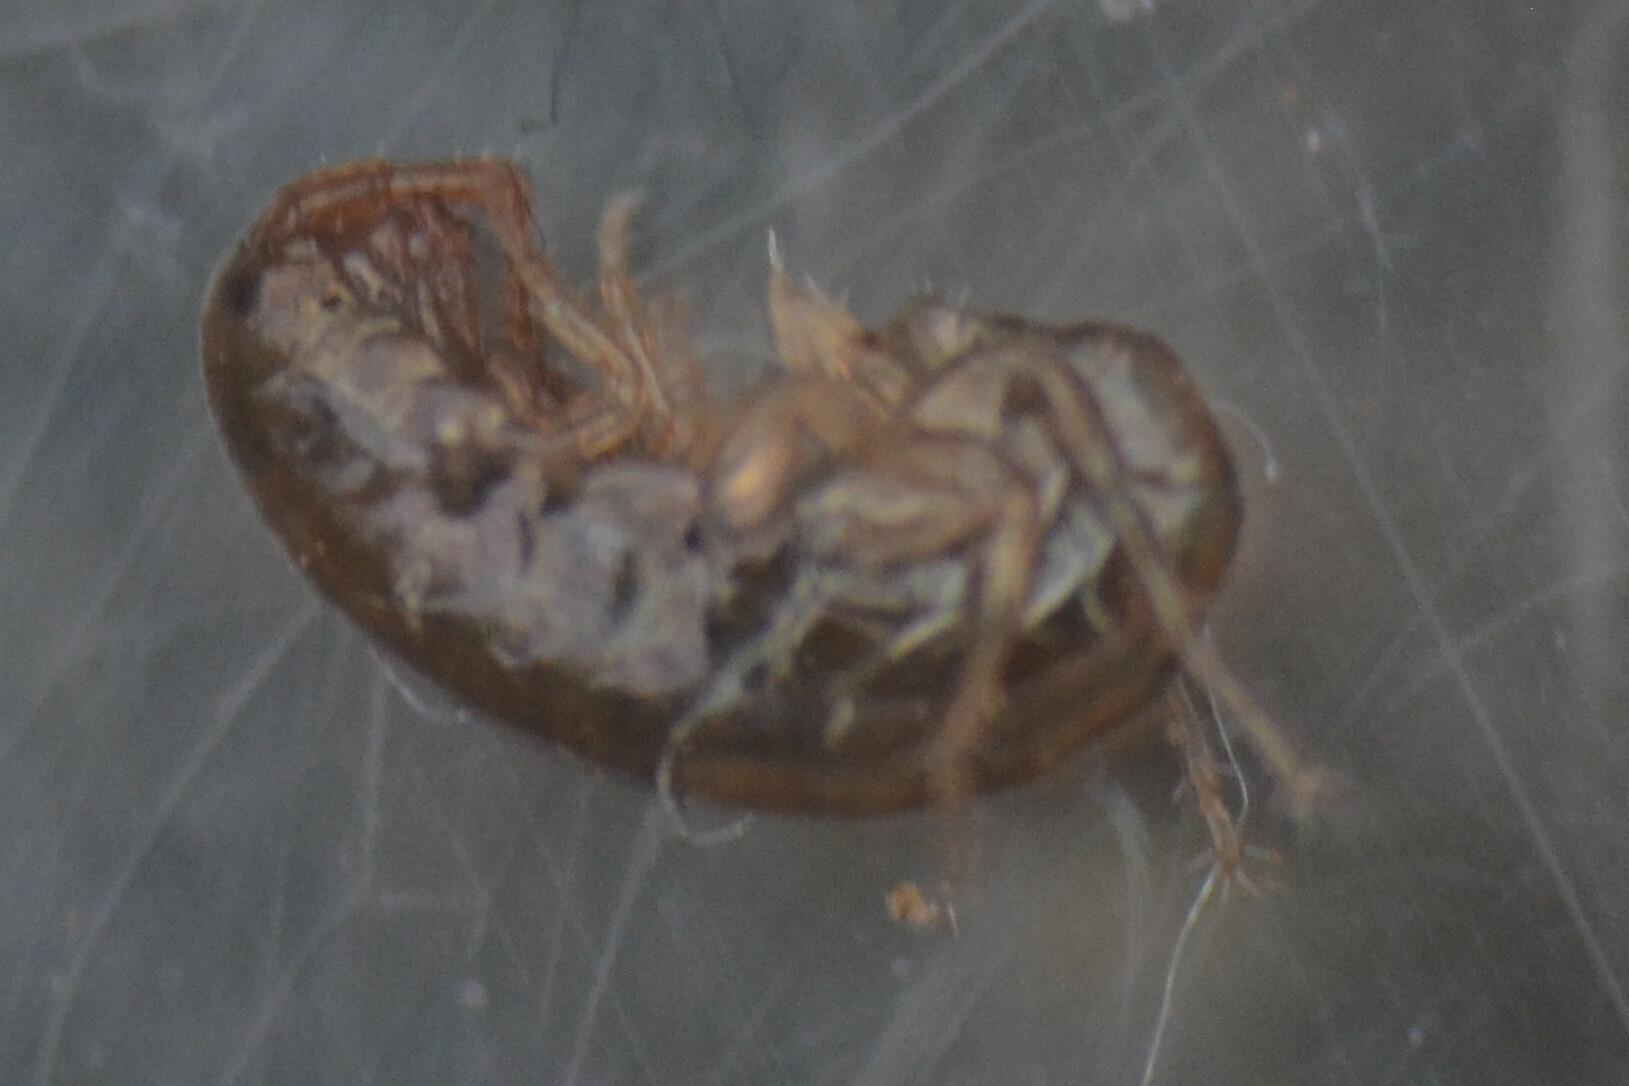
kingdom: Animalia
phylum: Arthropoda
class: Malacostraca
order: Amphipoda
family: Arcitalitridae
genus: Arcitalitrus
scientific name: Arcitalitrus dorrieni
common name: Landhopper
